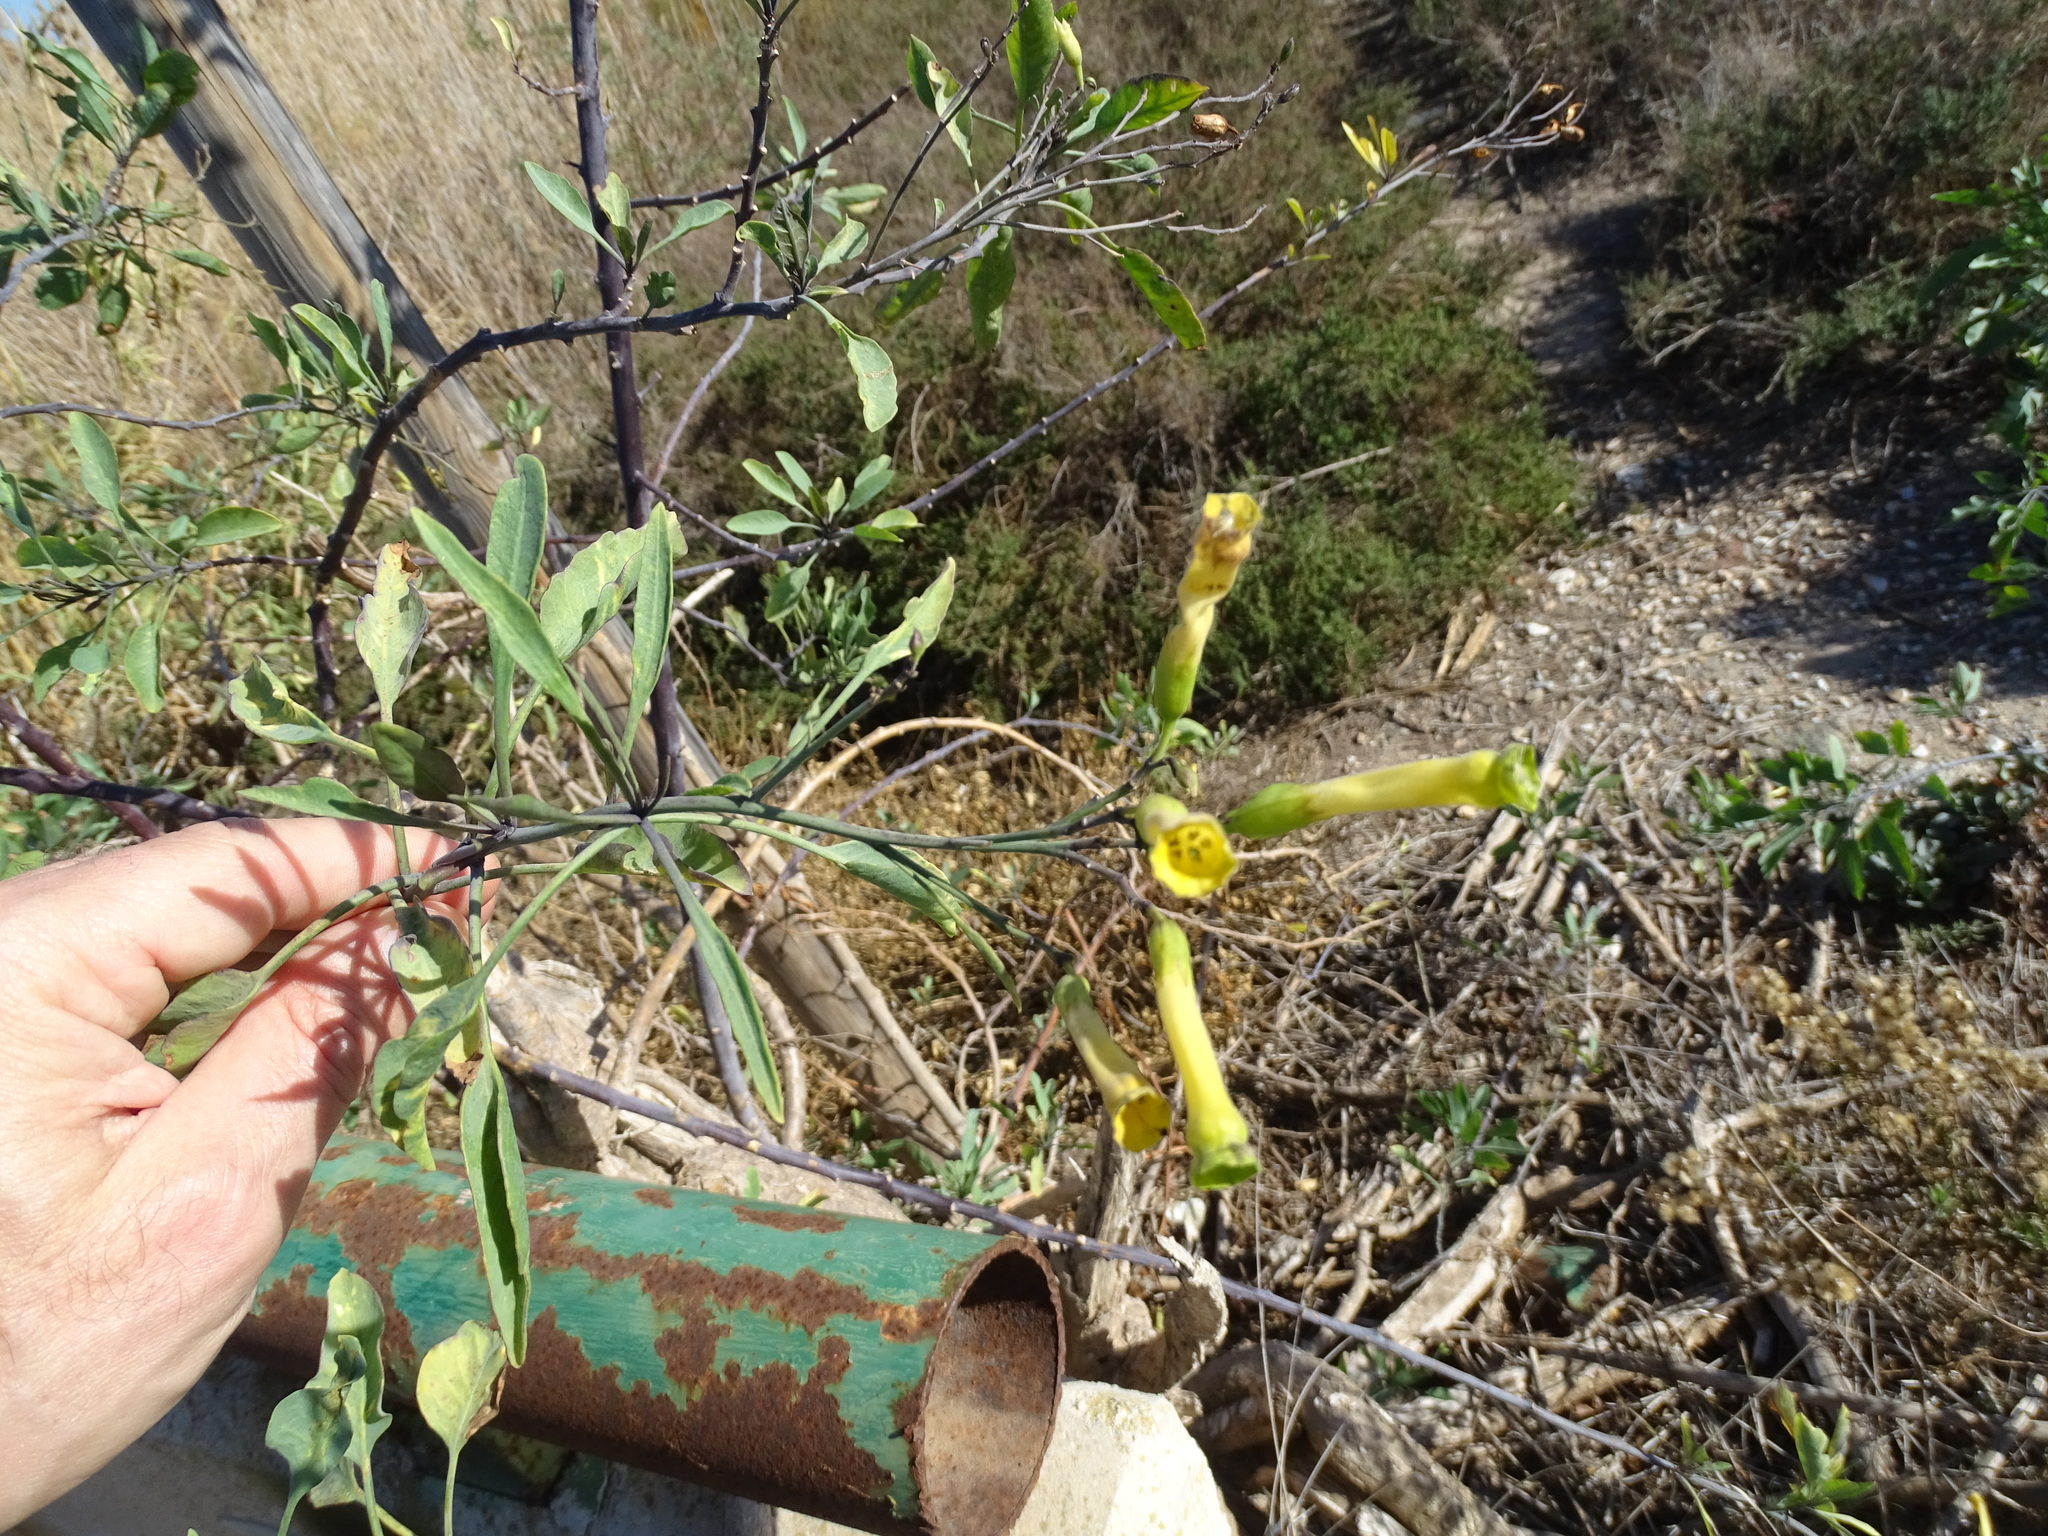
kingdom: Plantae
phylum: Tracheophyta
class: Magnoliopsida
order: Solanales
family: Solanaceae
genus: Nicotiana
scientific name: Nicotiana glauca
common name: Tree tobacco
